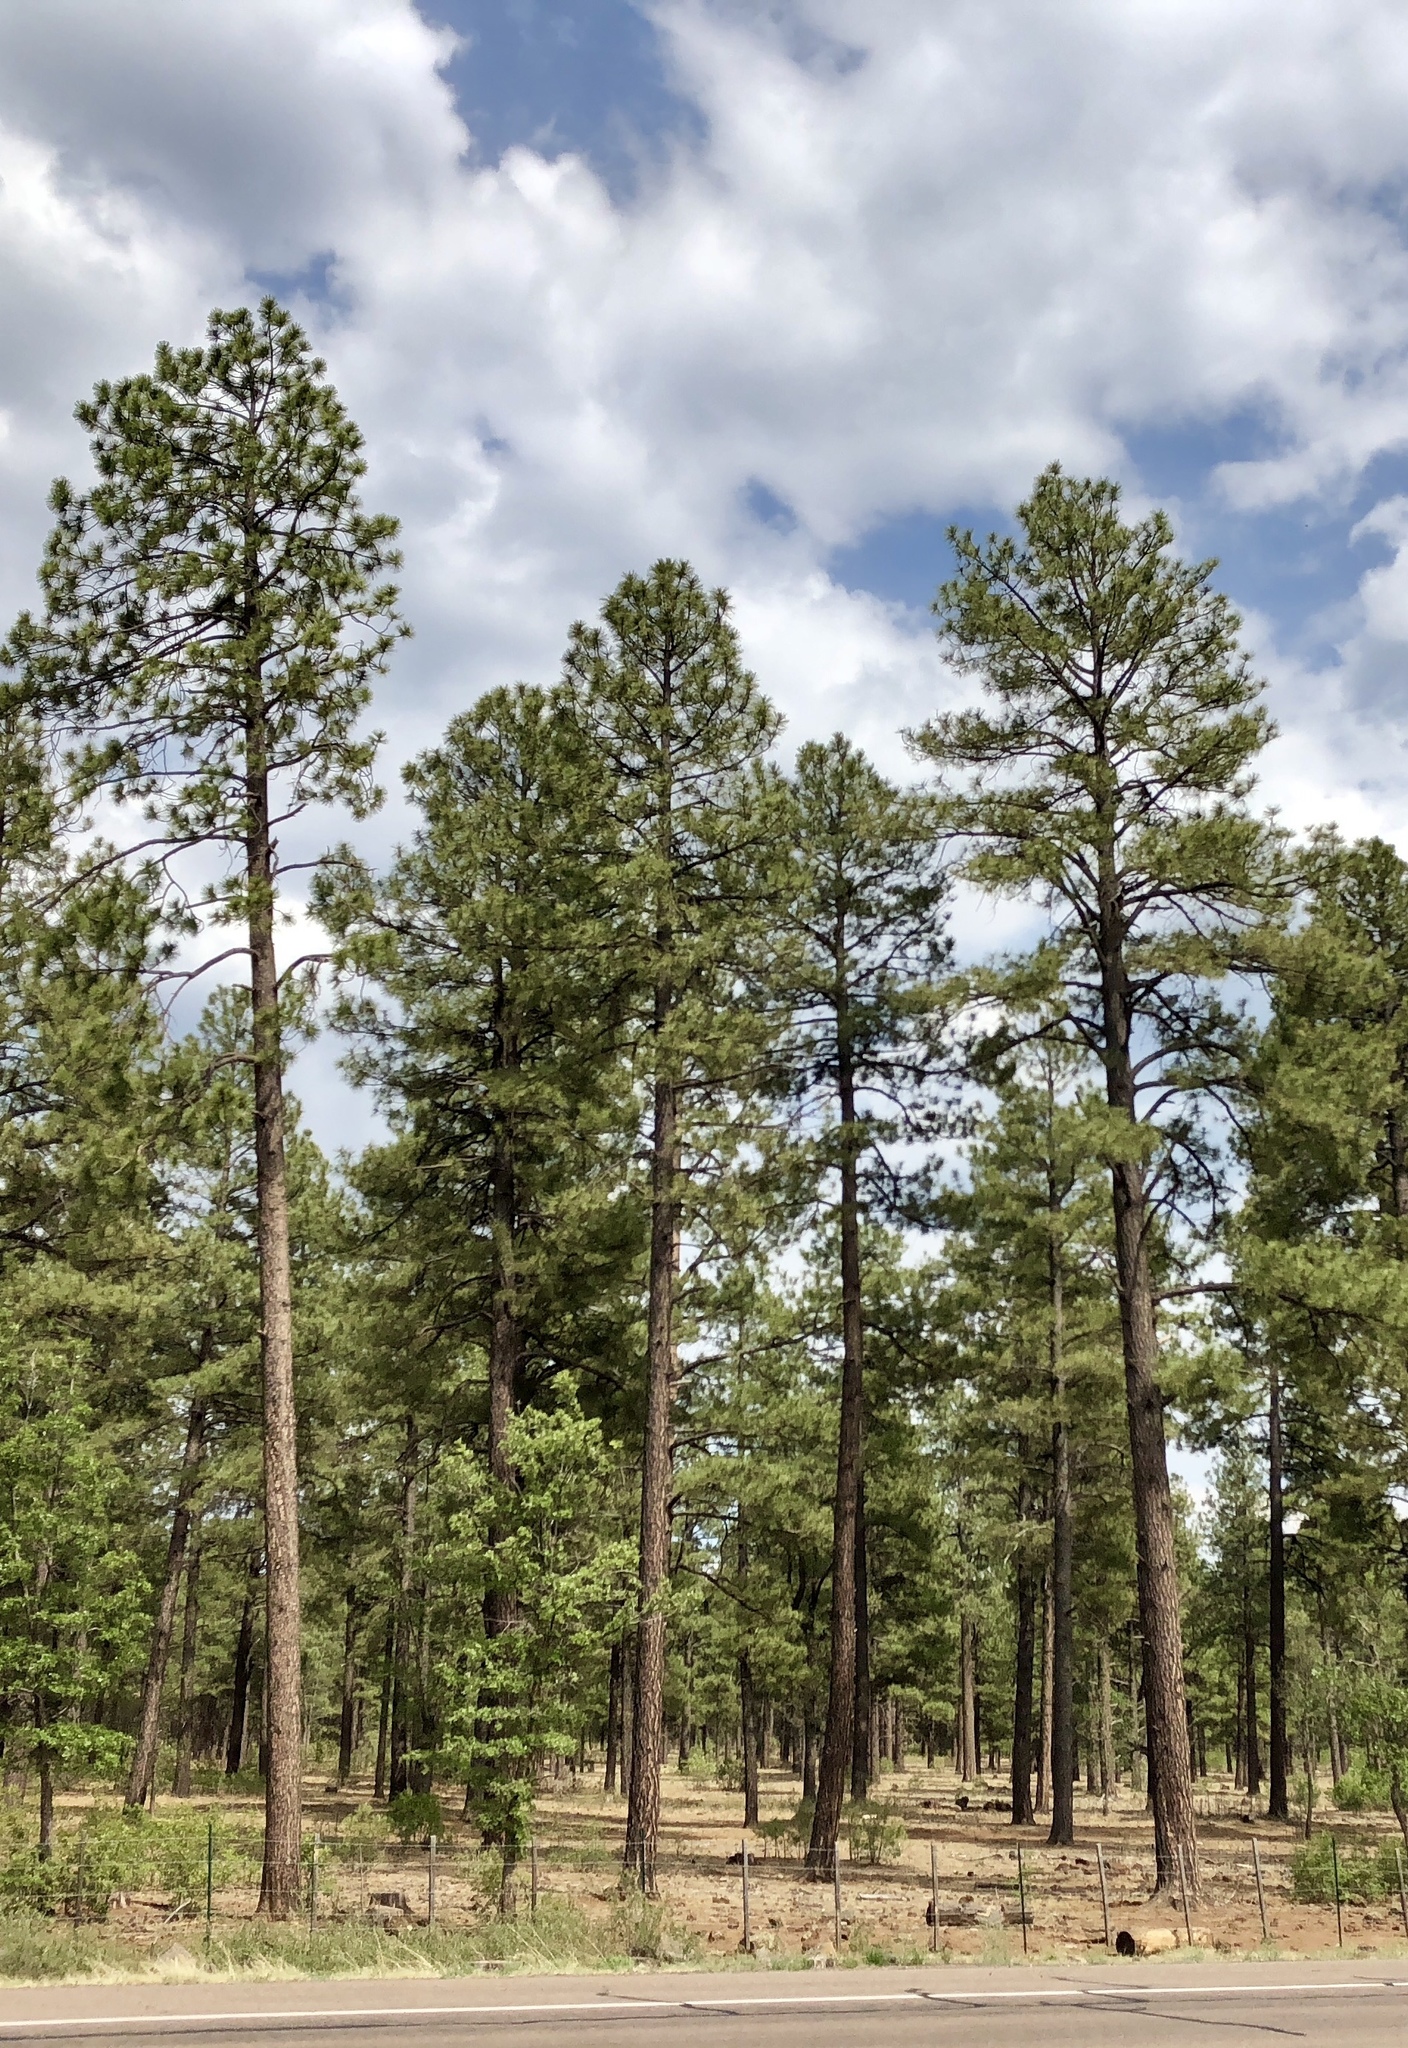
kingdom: Plantae
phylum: Tracheophyta
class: Pinopsida
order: Pinales
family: Pinaceae
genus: Pinus
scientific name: Pinus ponderosa
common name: Western yellow-pine
